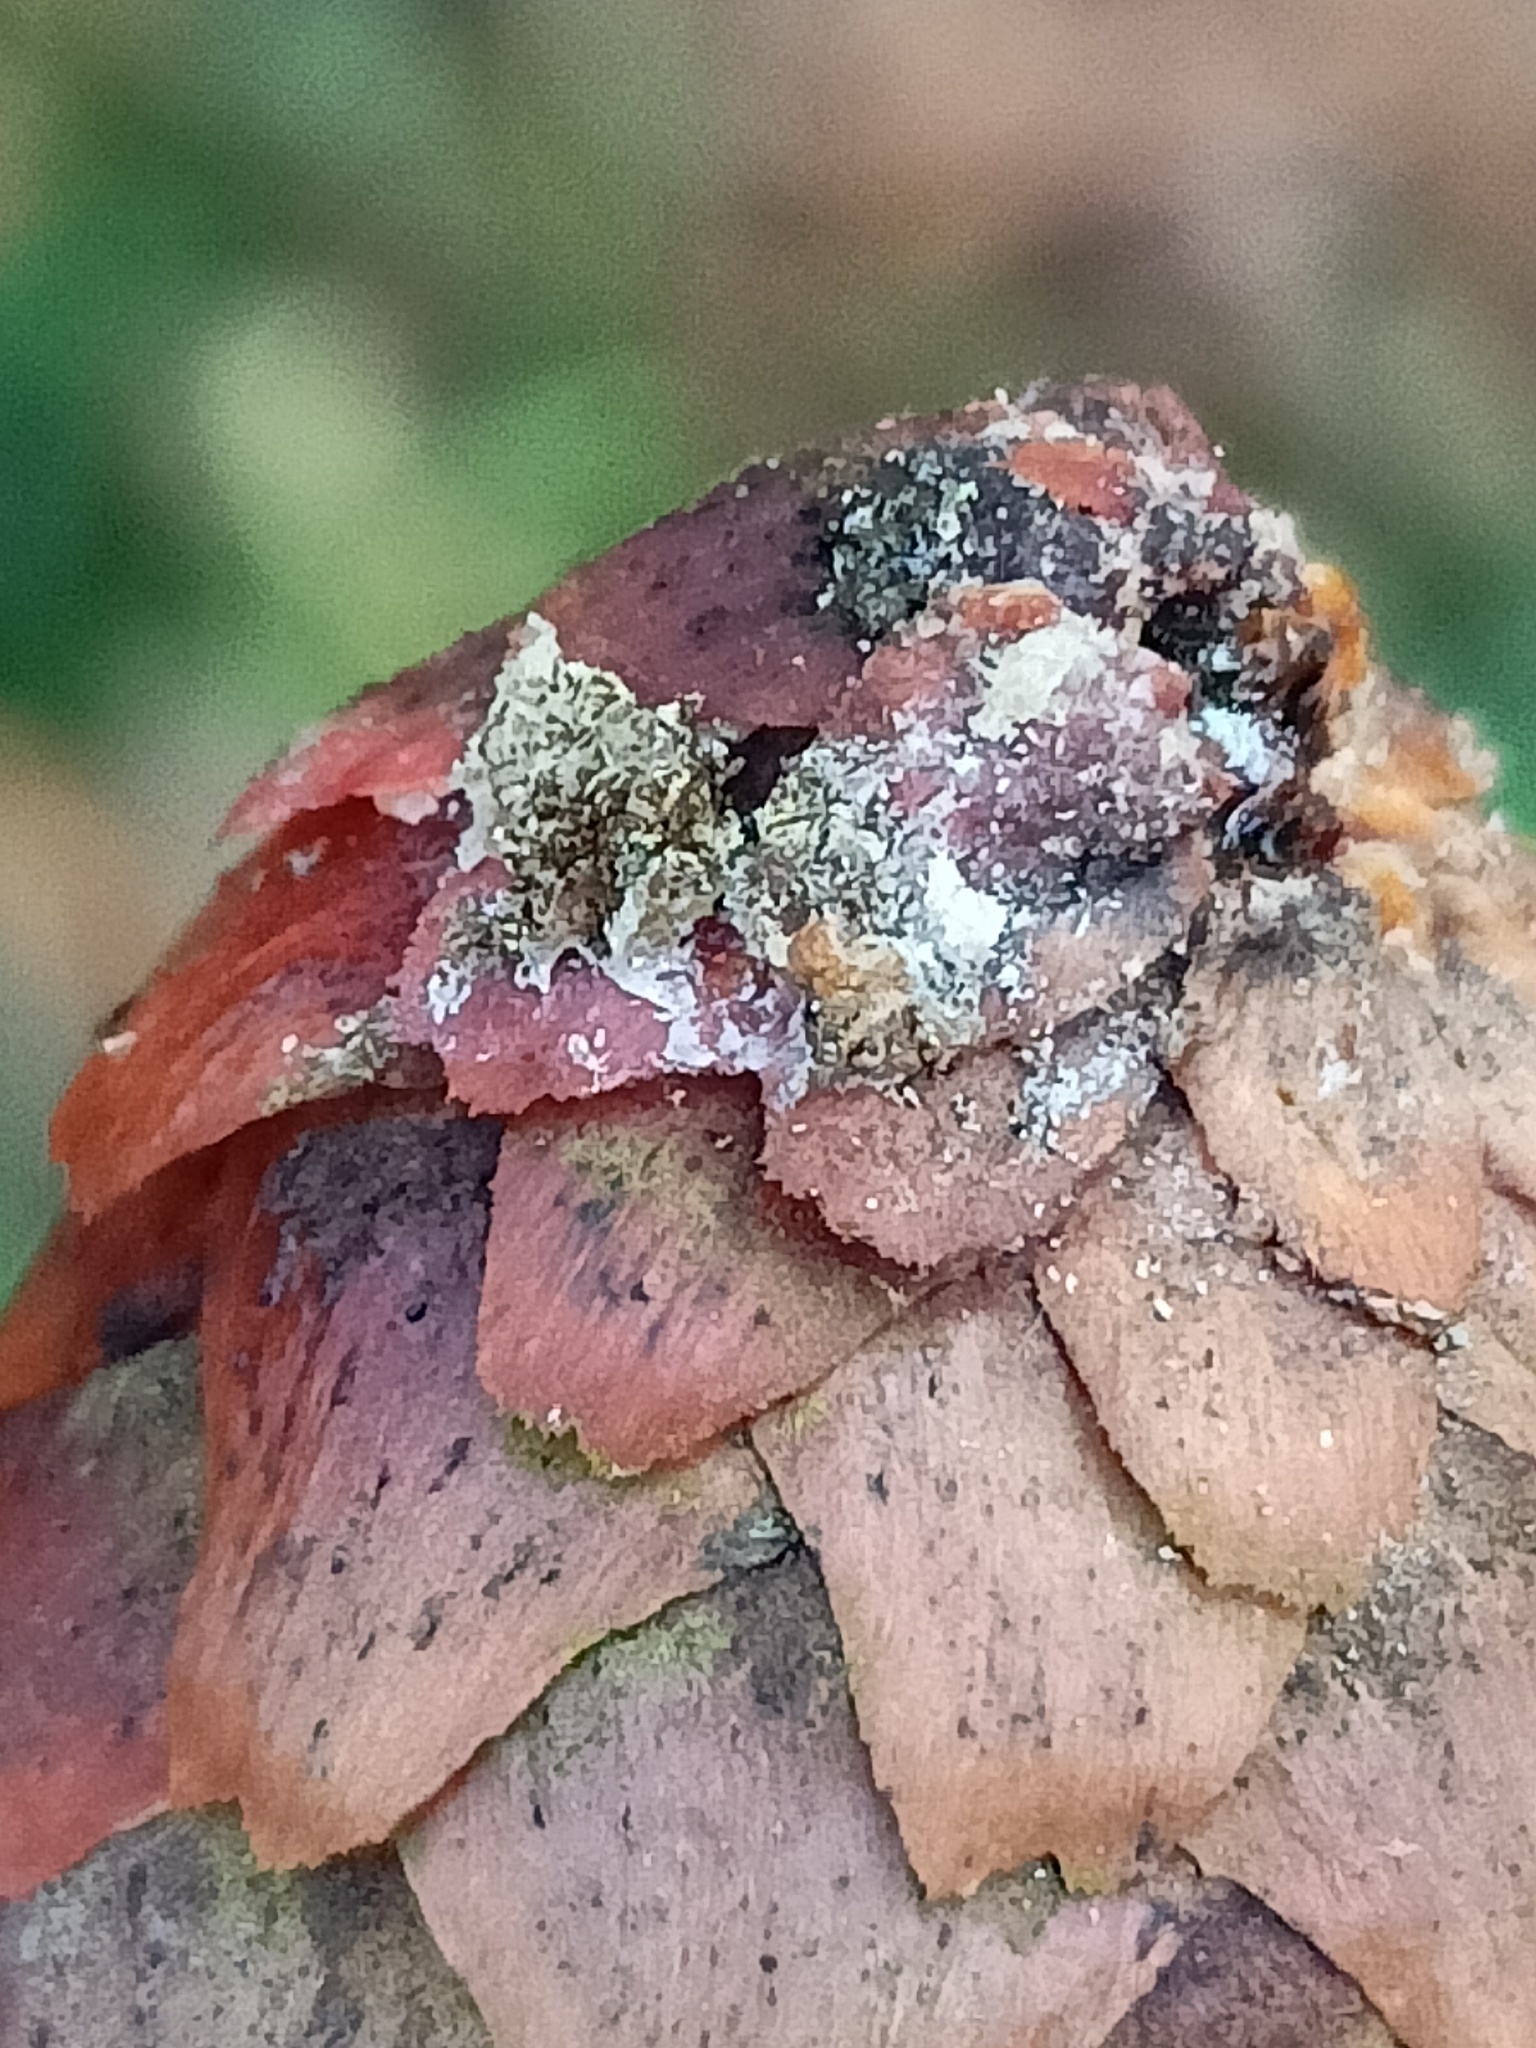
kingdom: Plantae
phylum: Tracheophyta
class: Pinopsida
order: Pinales
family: Pinaceae
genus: Picea
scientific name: Picea abies
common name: Norway spruce
